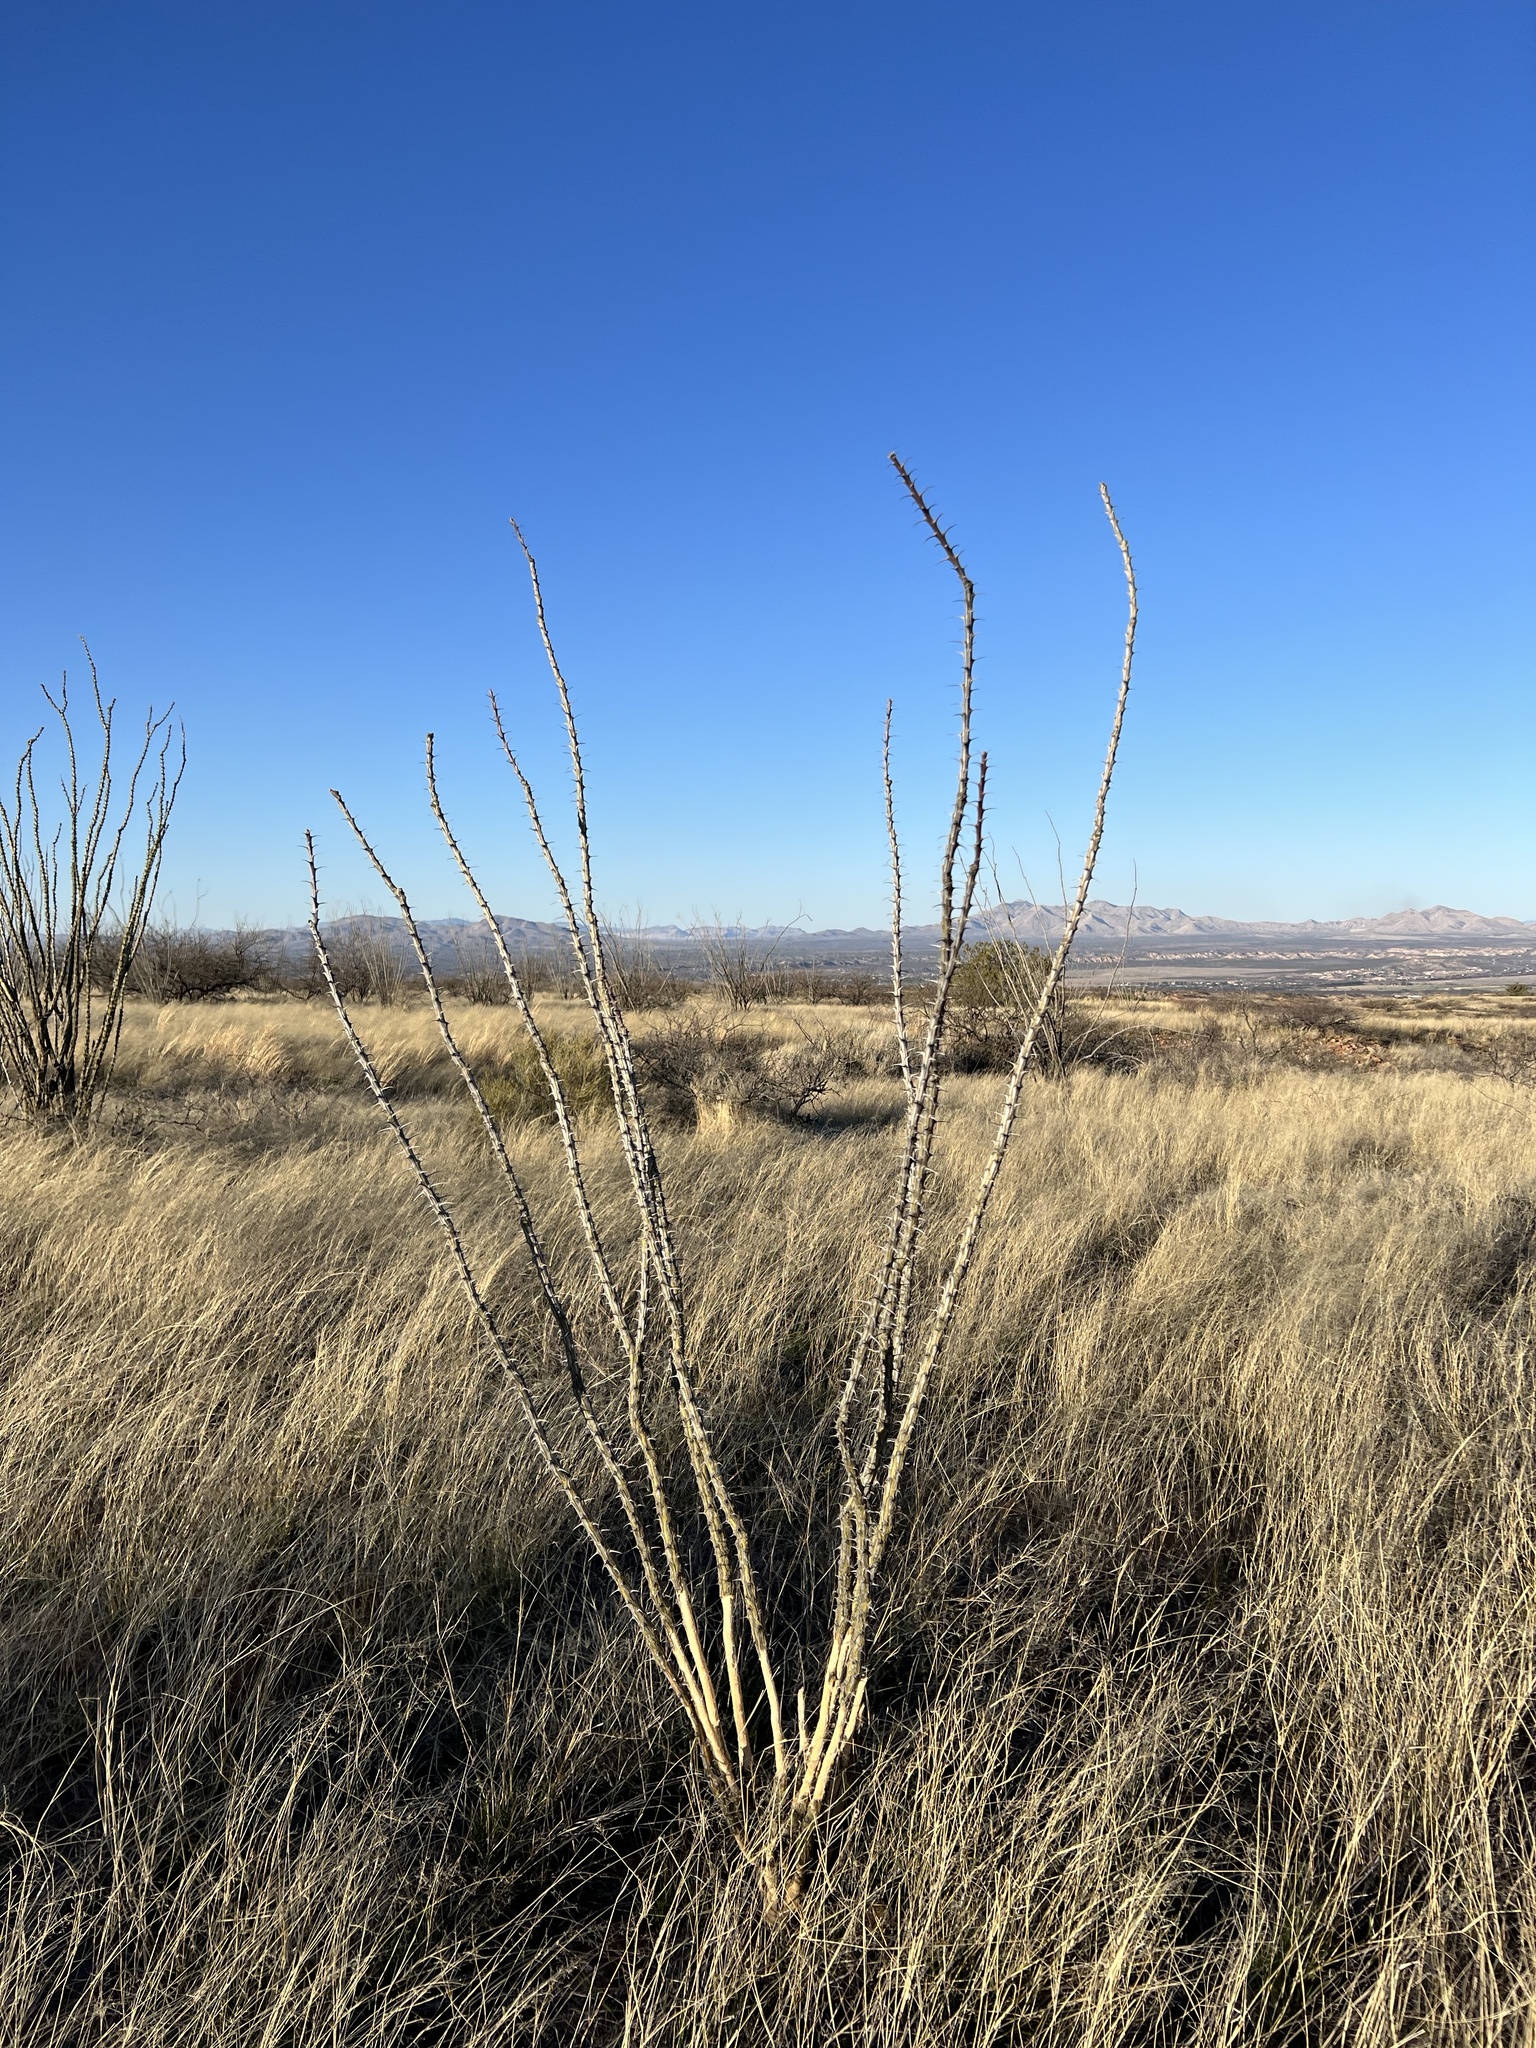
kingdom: Plantae
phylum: Tracheophyta
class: Magnoliopsida
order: Ericales
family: Fouquieriaceae
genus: Fouquieria
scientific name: Fouquieria splendens
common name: Vine-cactus
